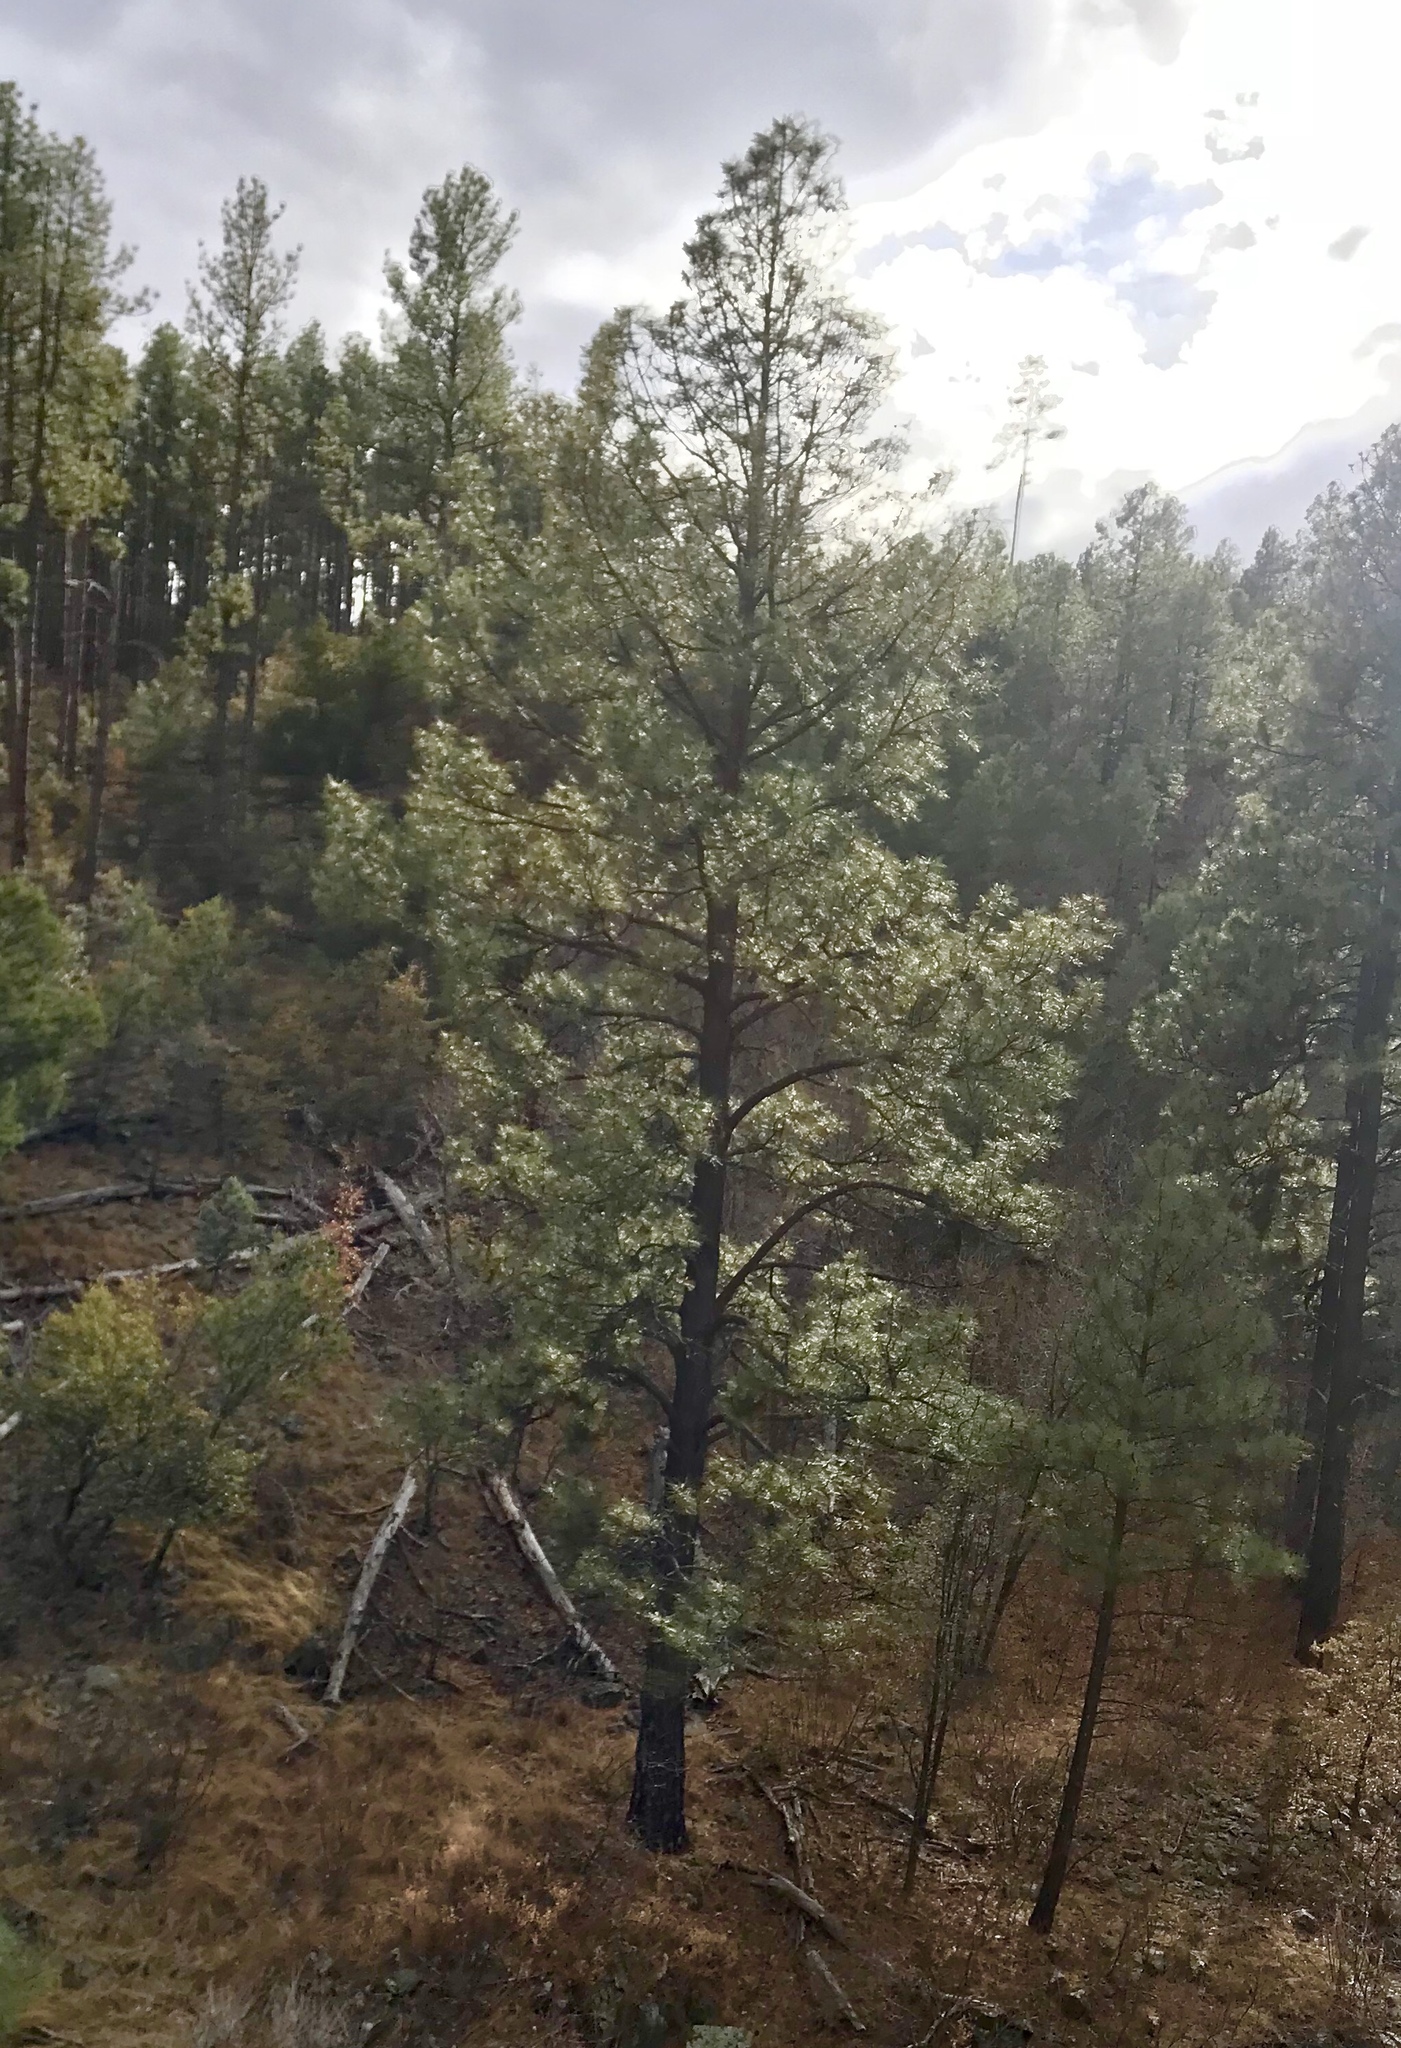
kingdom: Plantae
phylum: Tracheophyta
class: Pinopsida
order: Pinales
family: Pinaceae
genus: Pinus
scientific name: Pinus ponderosa
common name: Western yellow-pine
